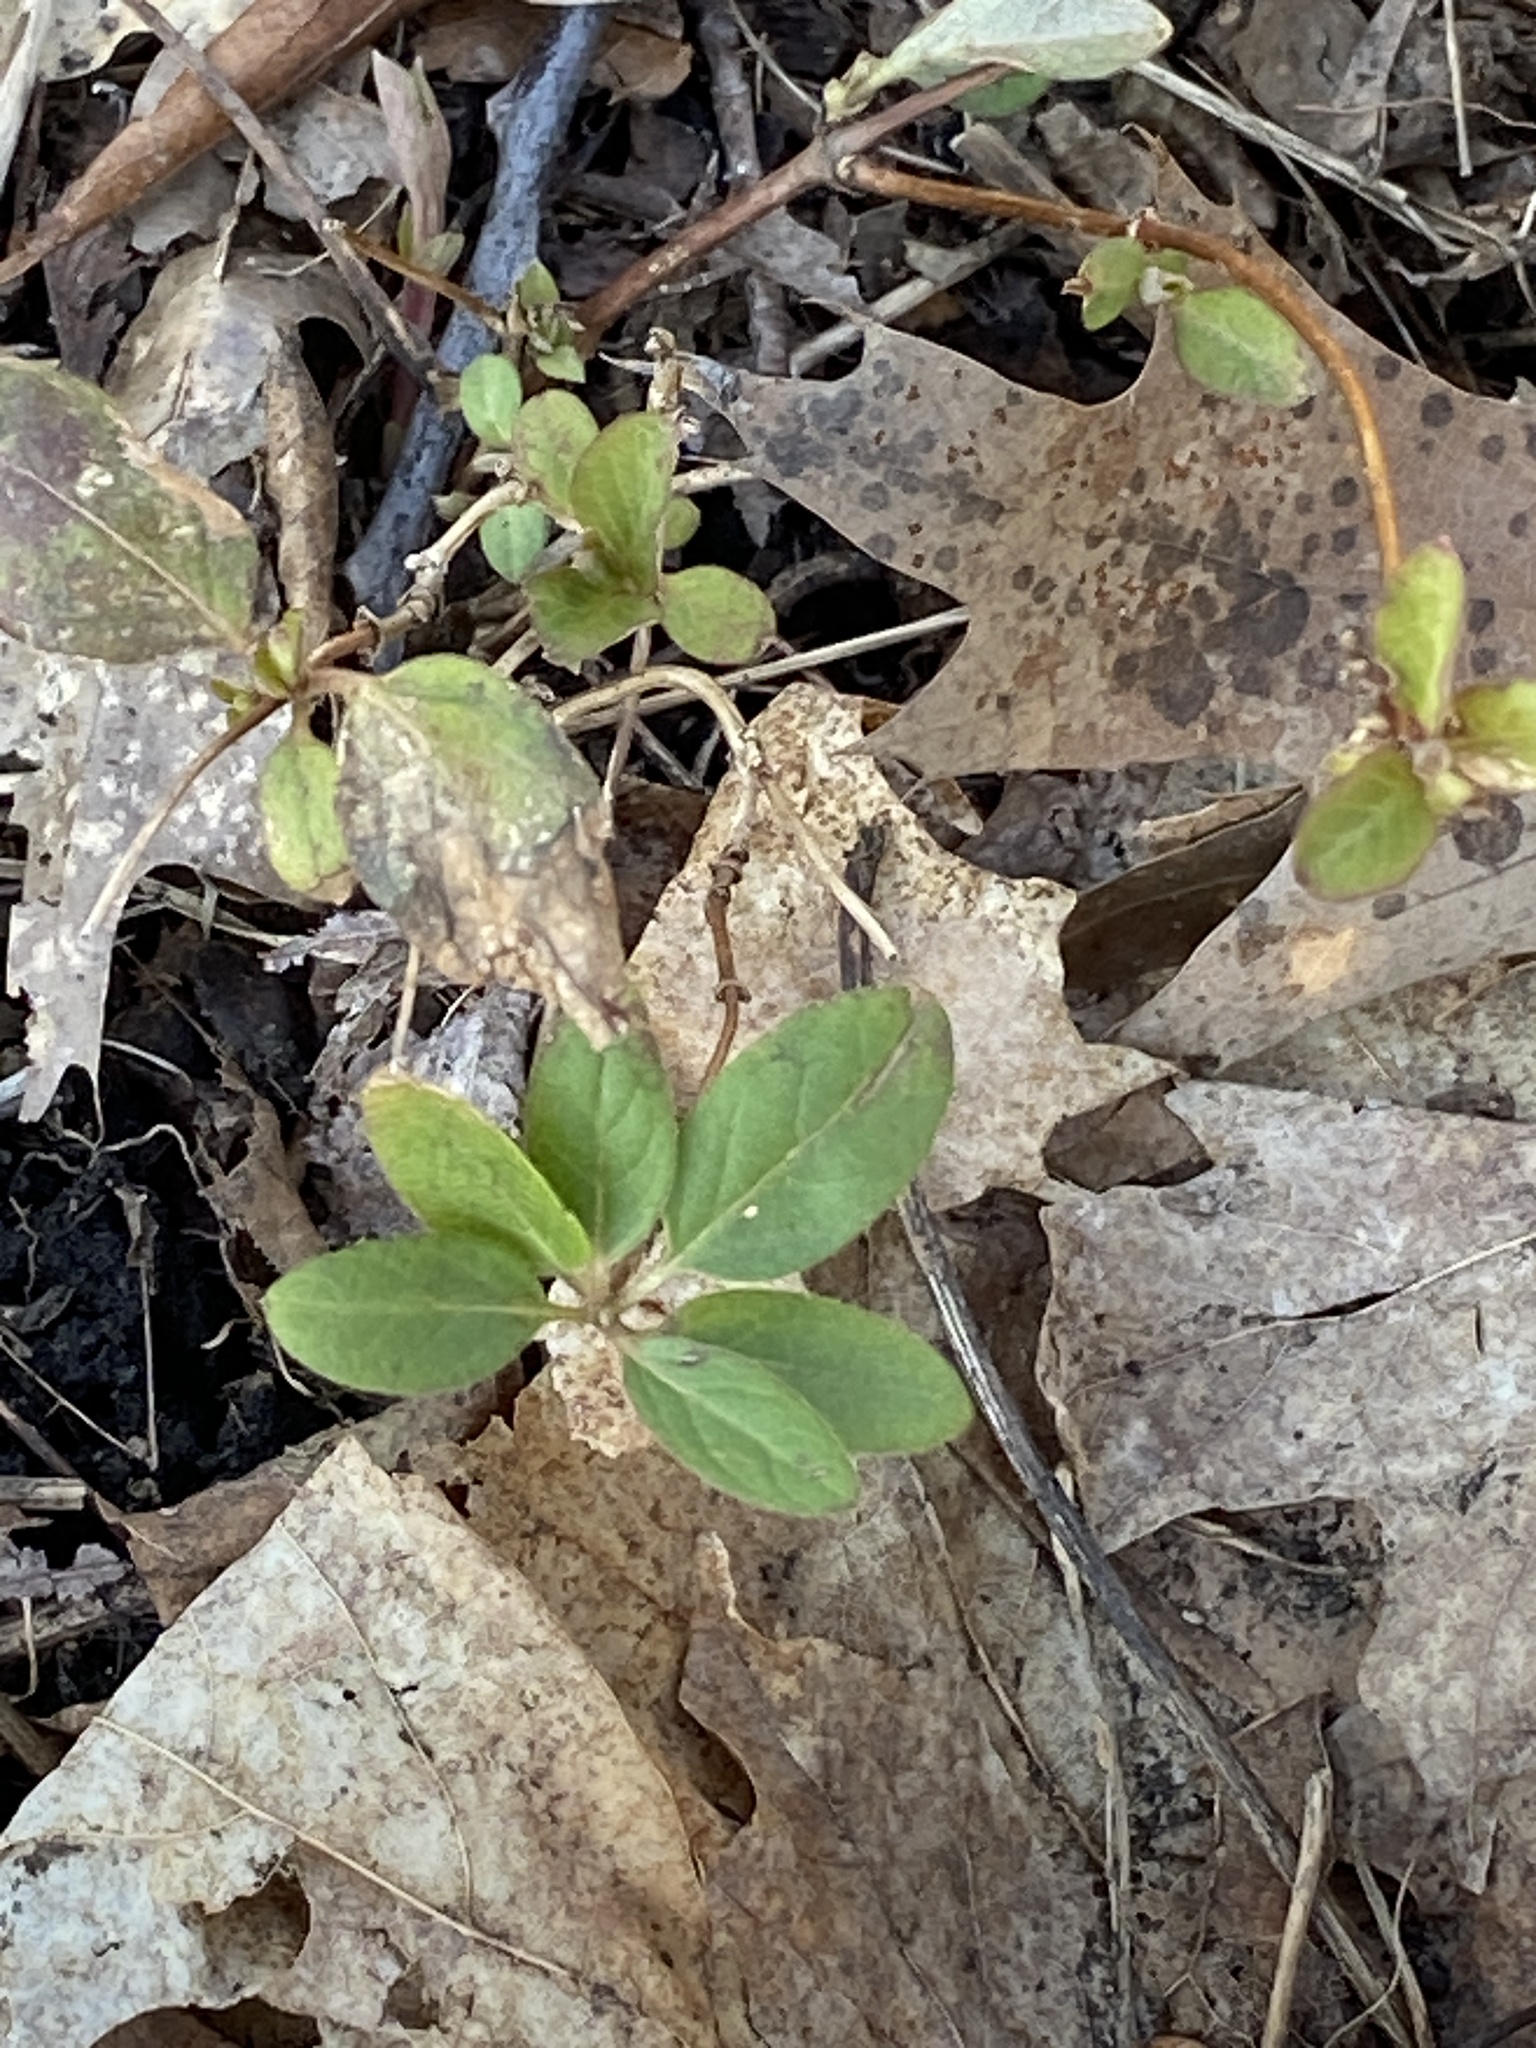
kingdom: Plantae
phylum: Tracheophyta
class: Magnoliopsida
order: Dipsacales
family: Caprifoliaceae
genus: Lonicera
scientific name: Lonicera japonica
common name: Japanese honeysuckle
